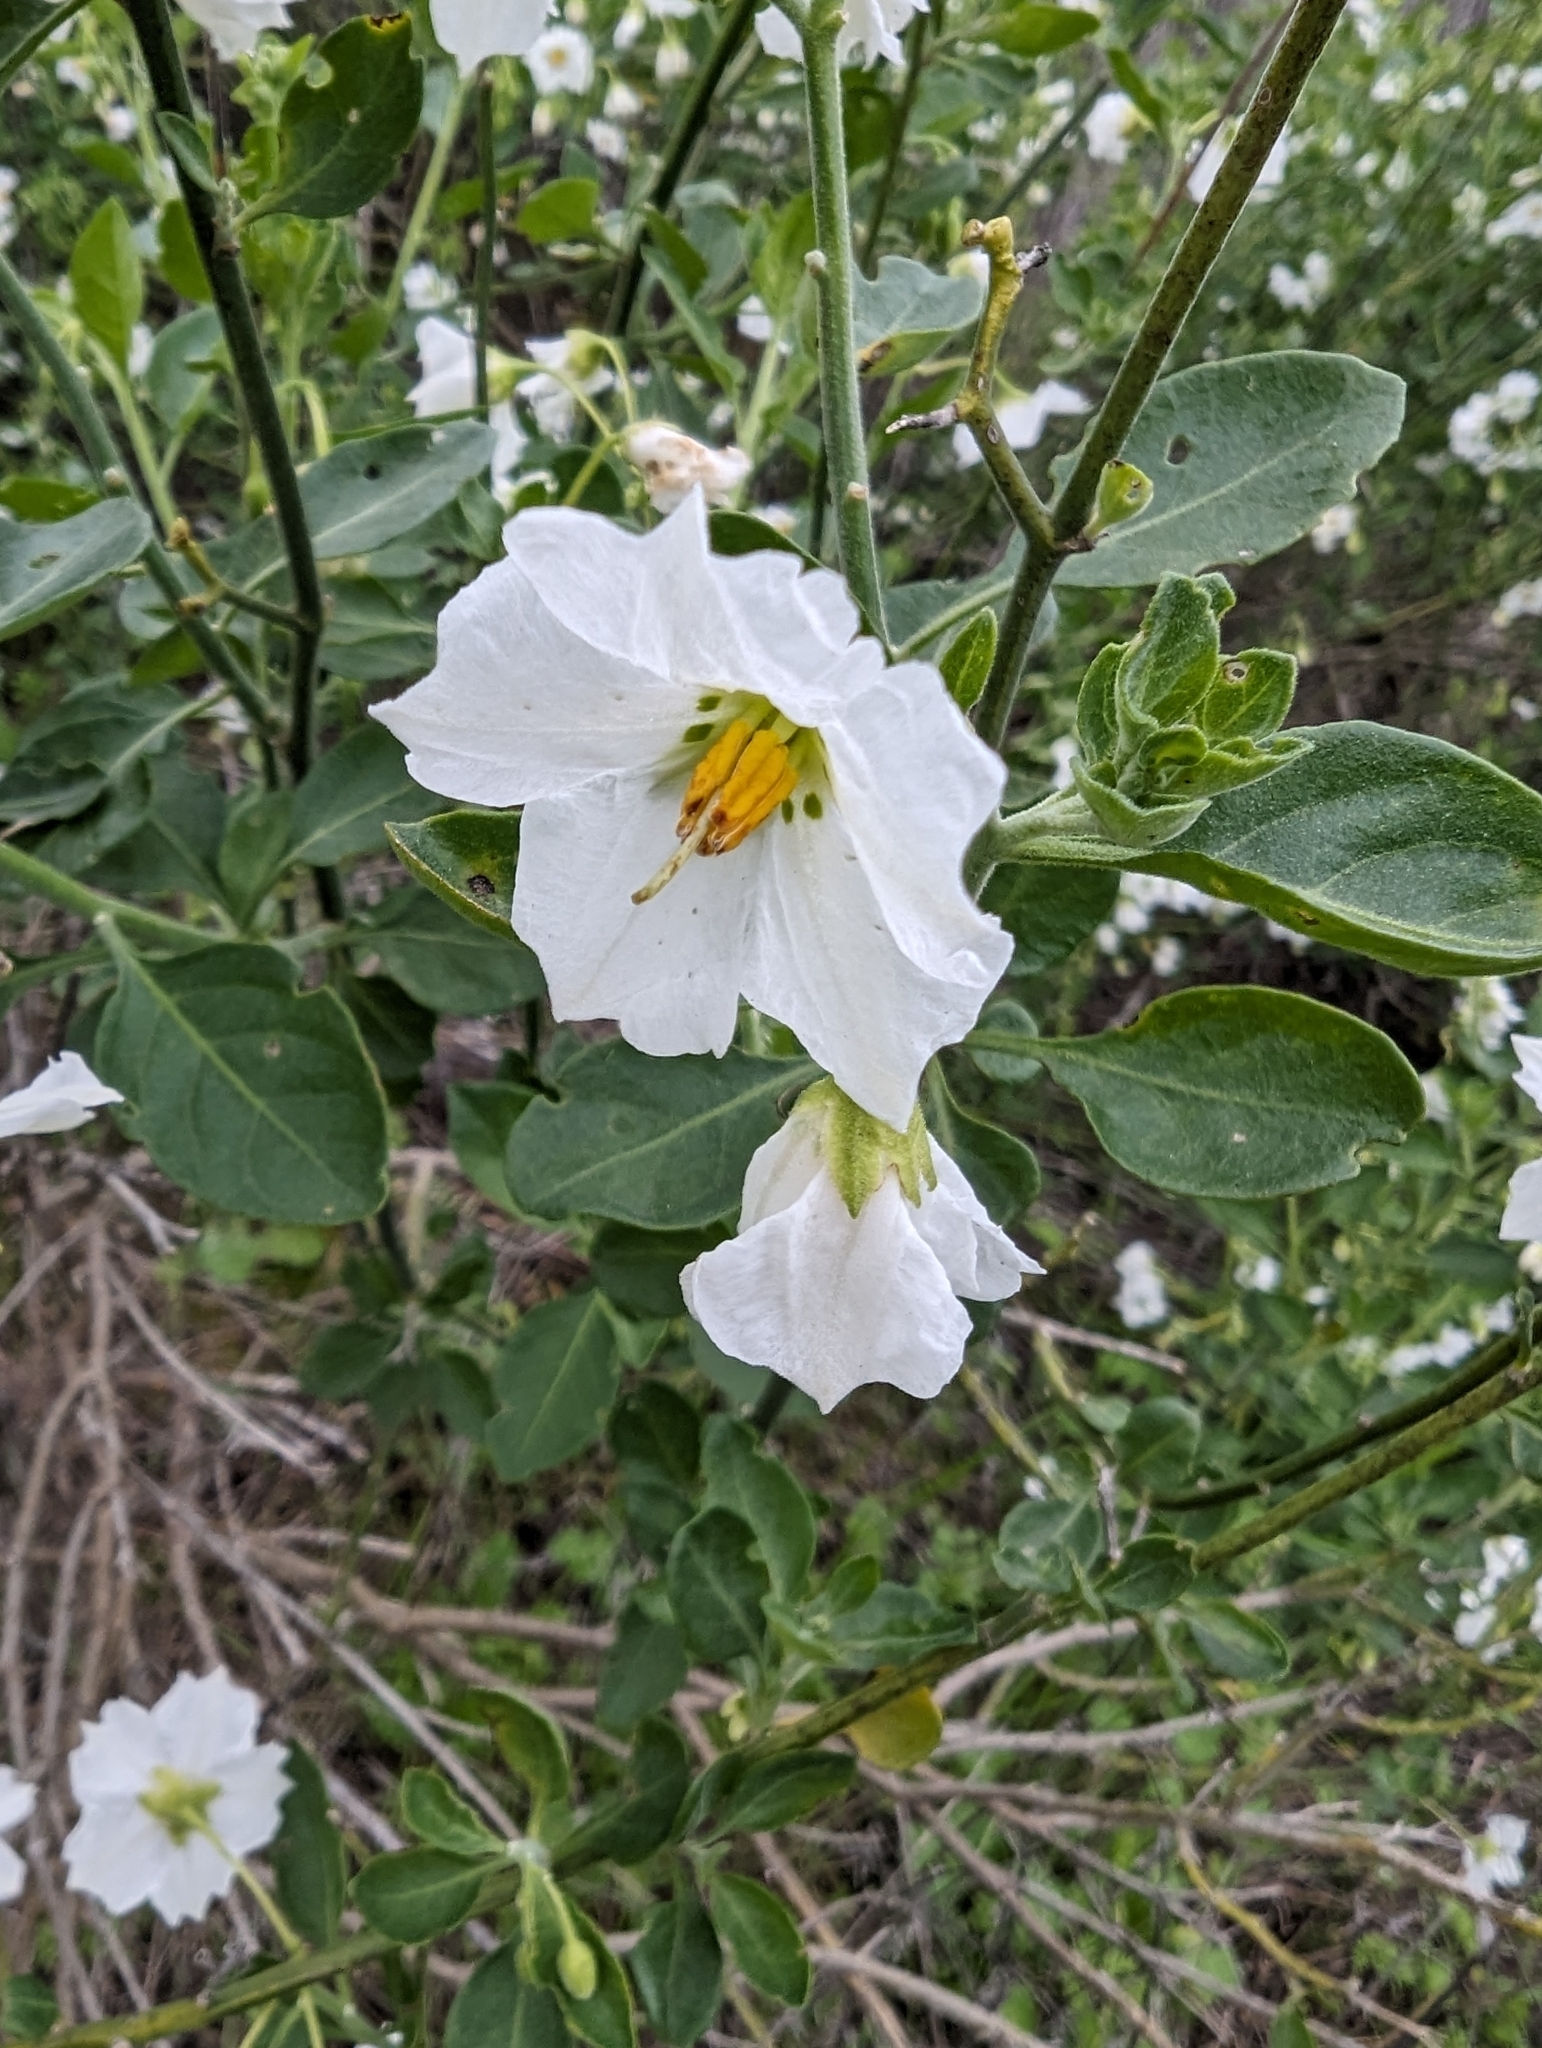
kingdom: Plantae
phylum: Tracheophyta
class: Magnoliopsida
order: Solanales
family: Solanaceae
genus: Solanum
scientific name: Solanum umbelliferum
